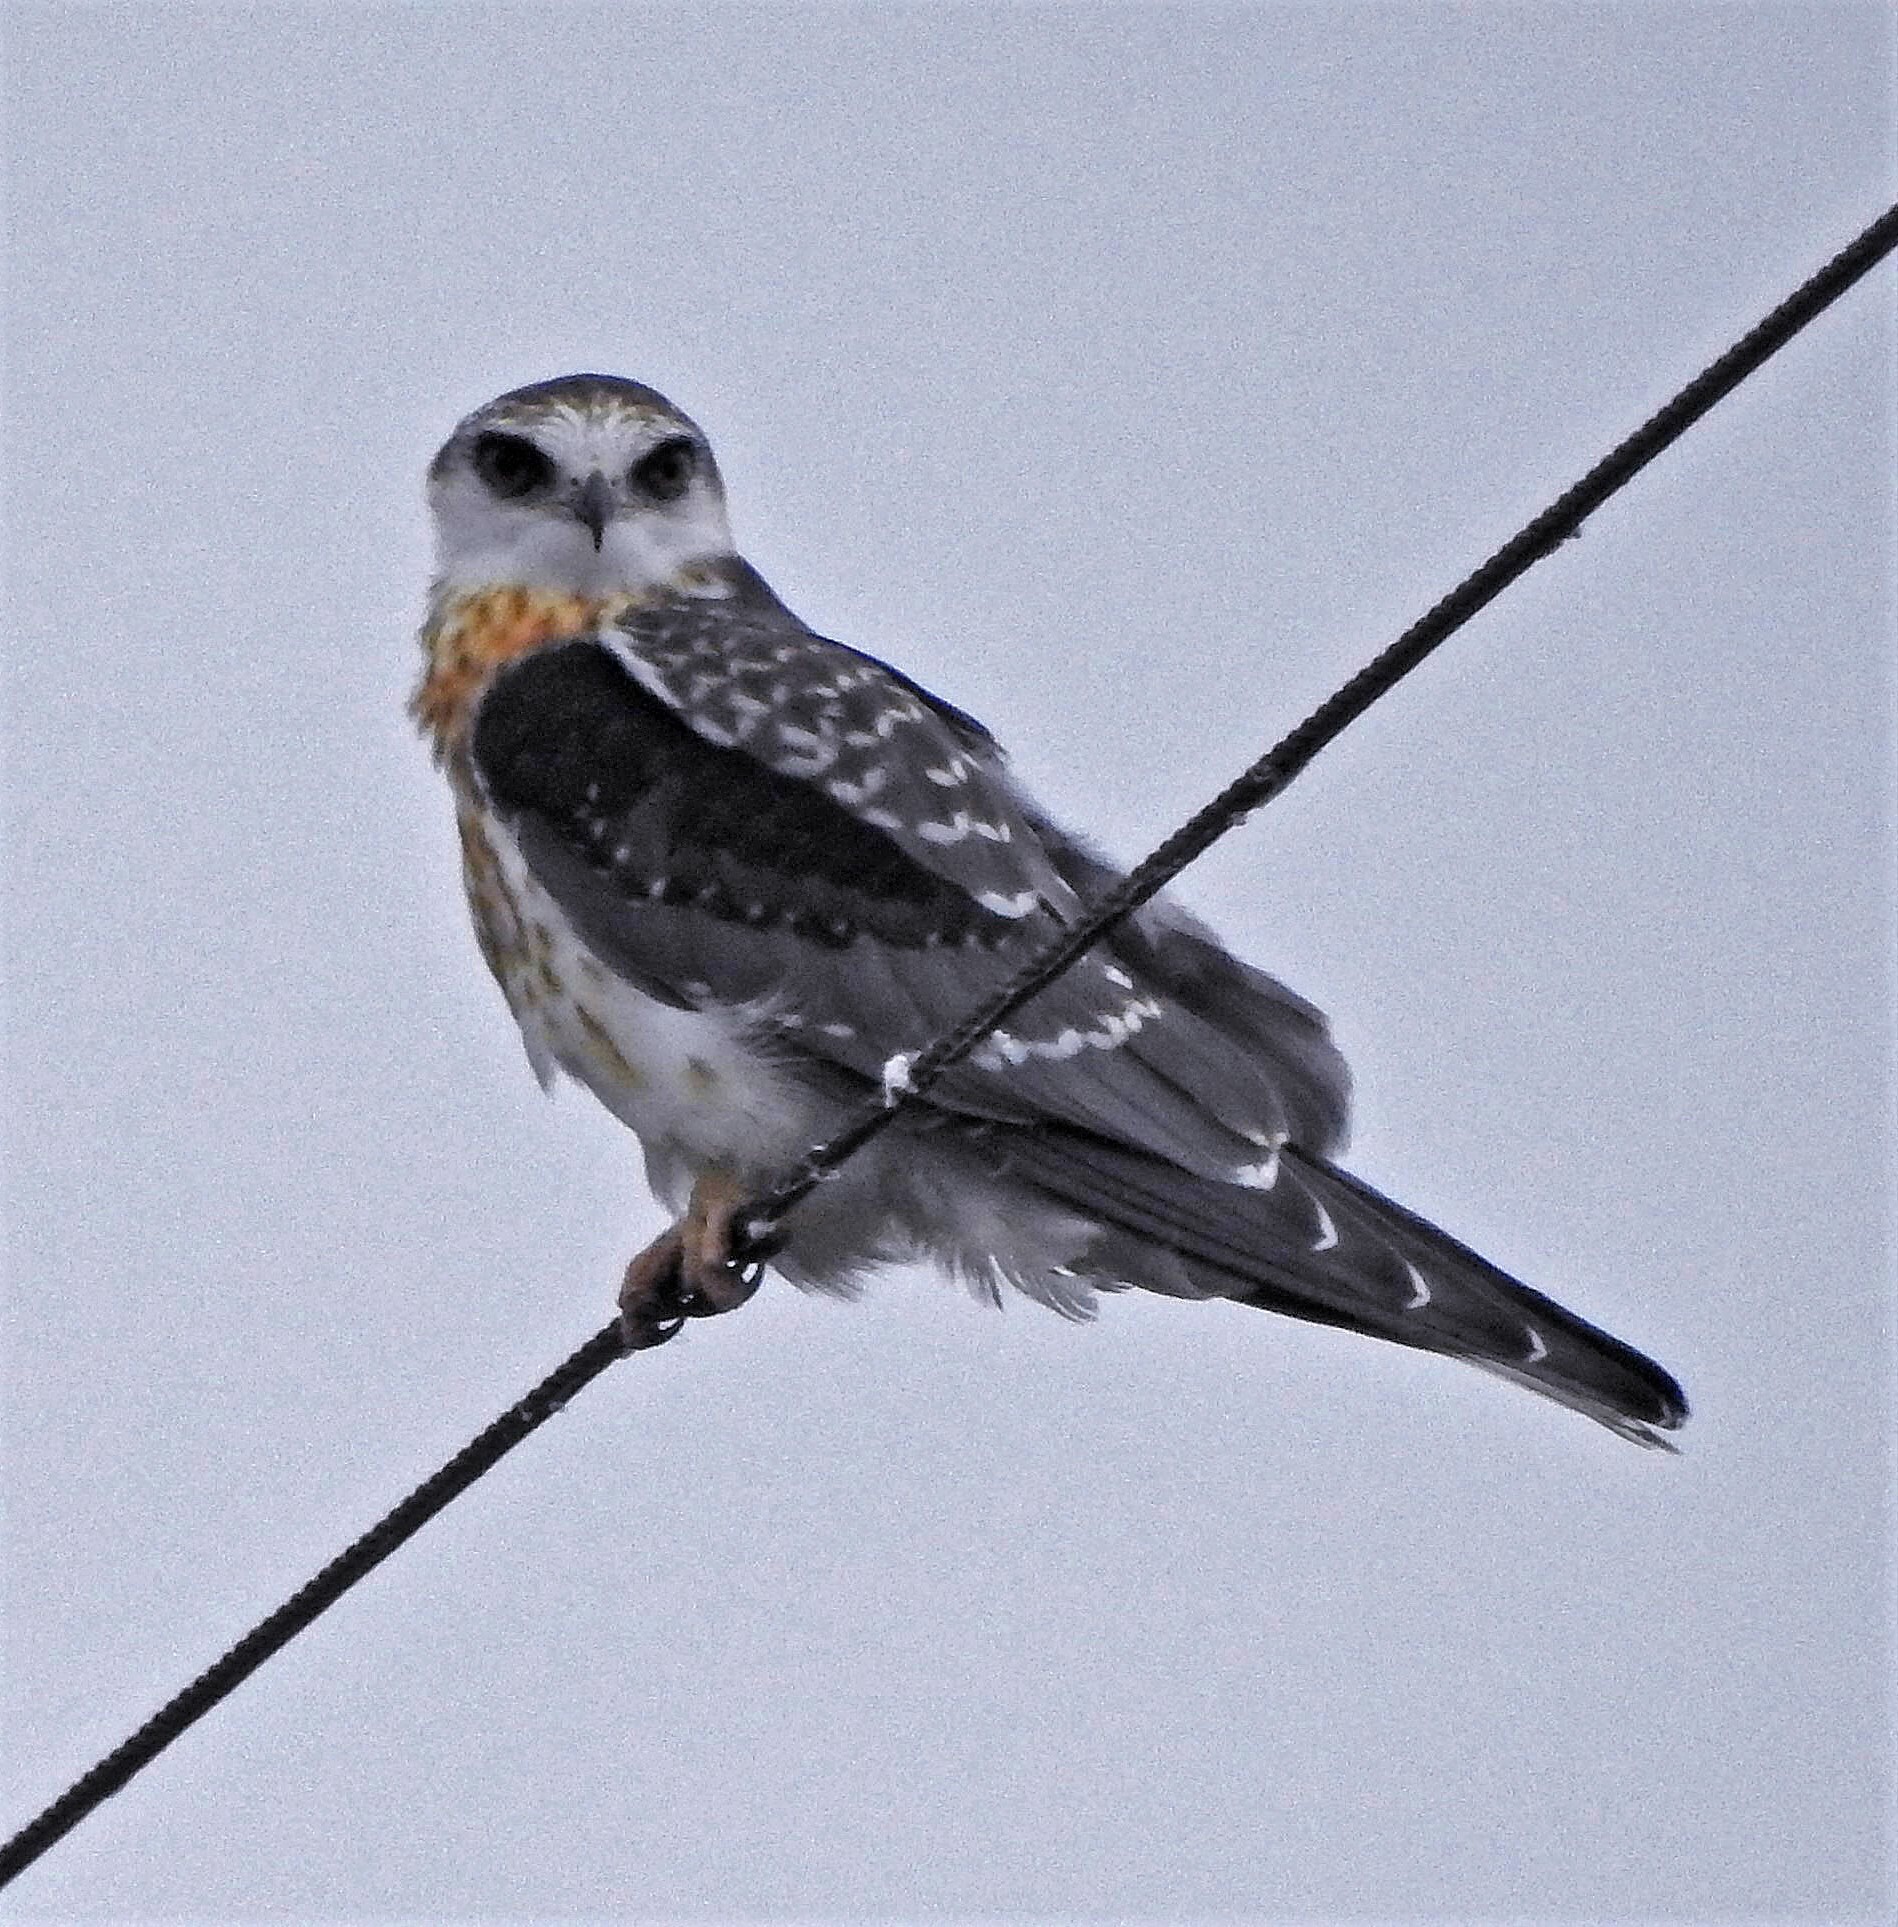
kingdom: Animalia
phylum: Chordata
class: Aves
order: Accipitriformes
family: Accipitridae
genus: Elanus
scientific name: Elanus leucurus
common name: White-tailed kite
